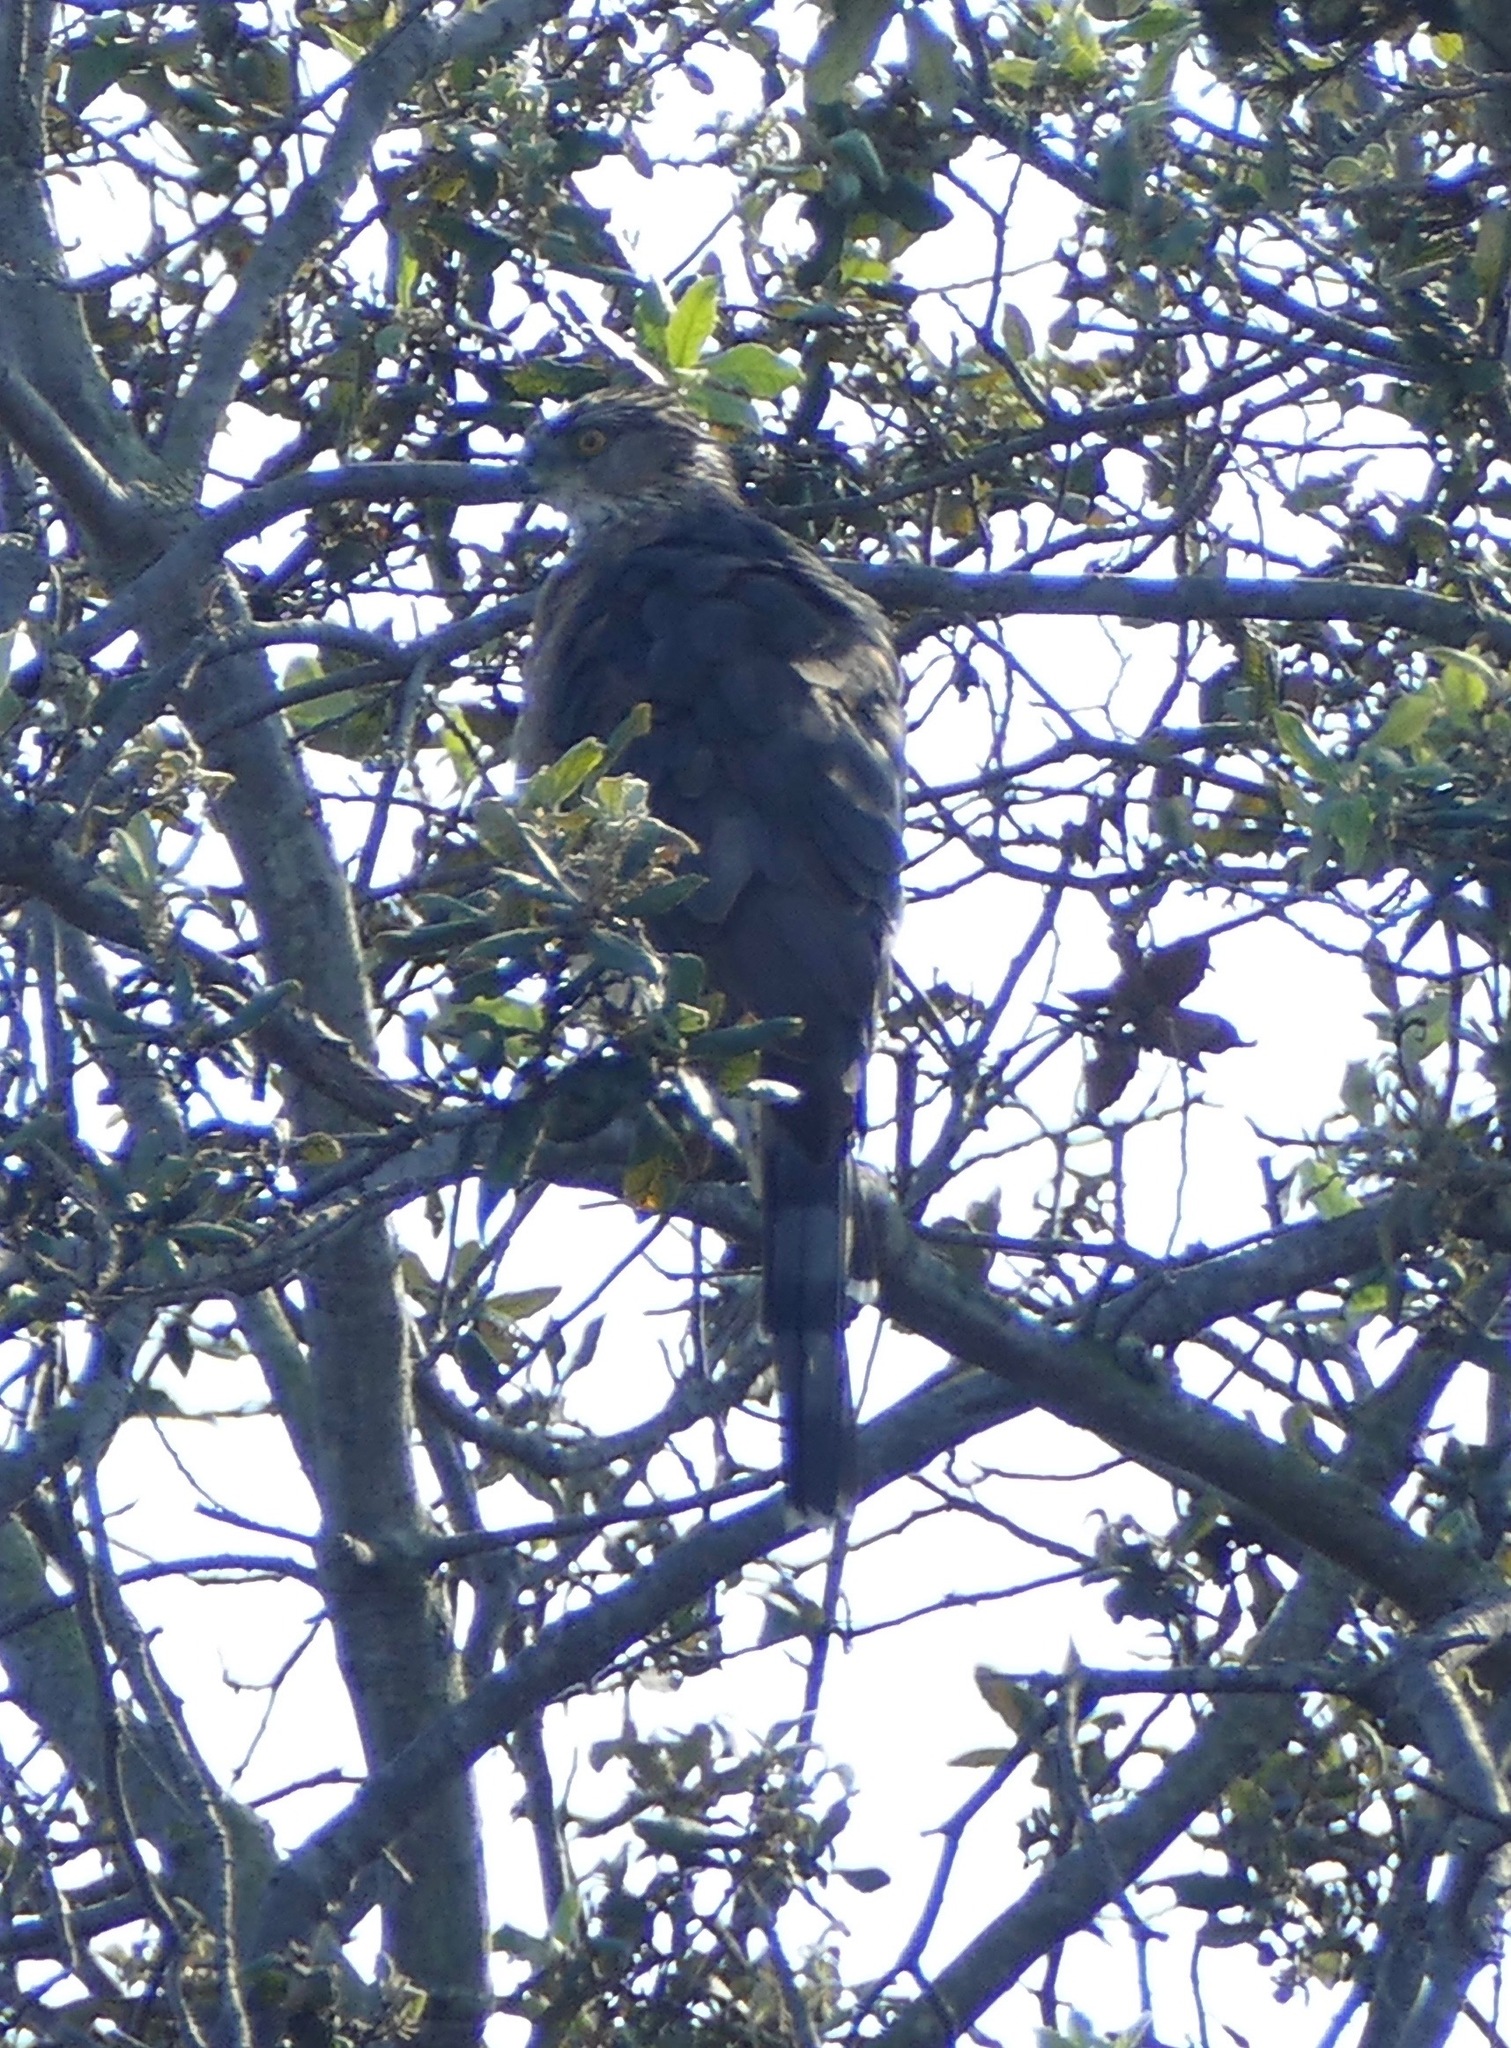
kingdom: Animalia
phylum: Chordata
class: Aves
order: Accipitriformes
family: Accipitridae
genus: Accipiter
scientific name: Accipiter cooperii
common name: Cooper's hawk
